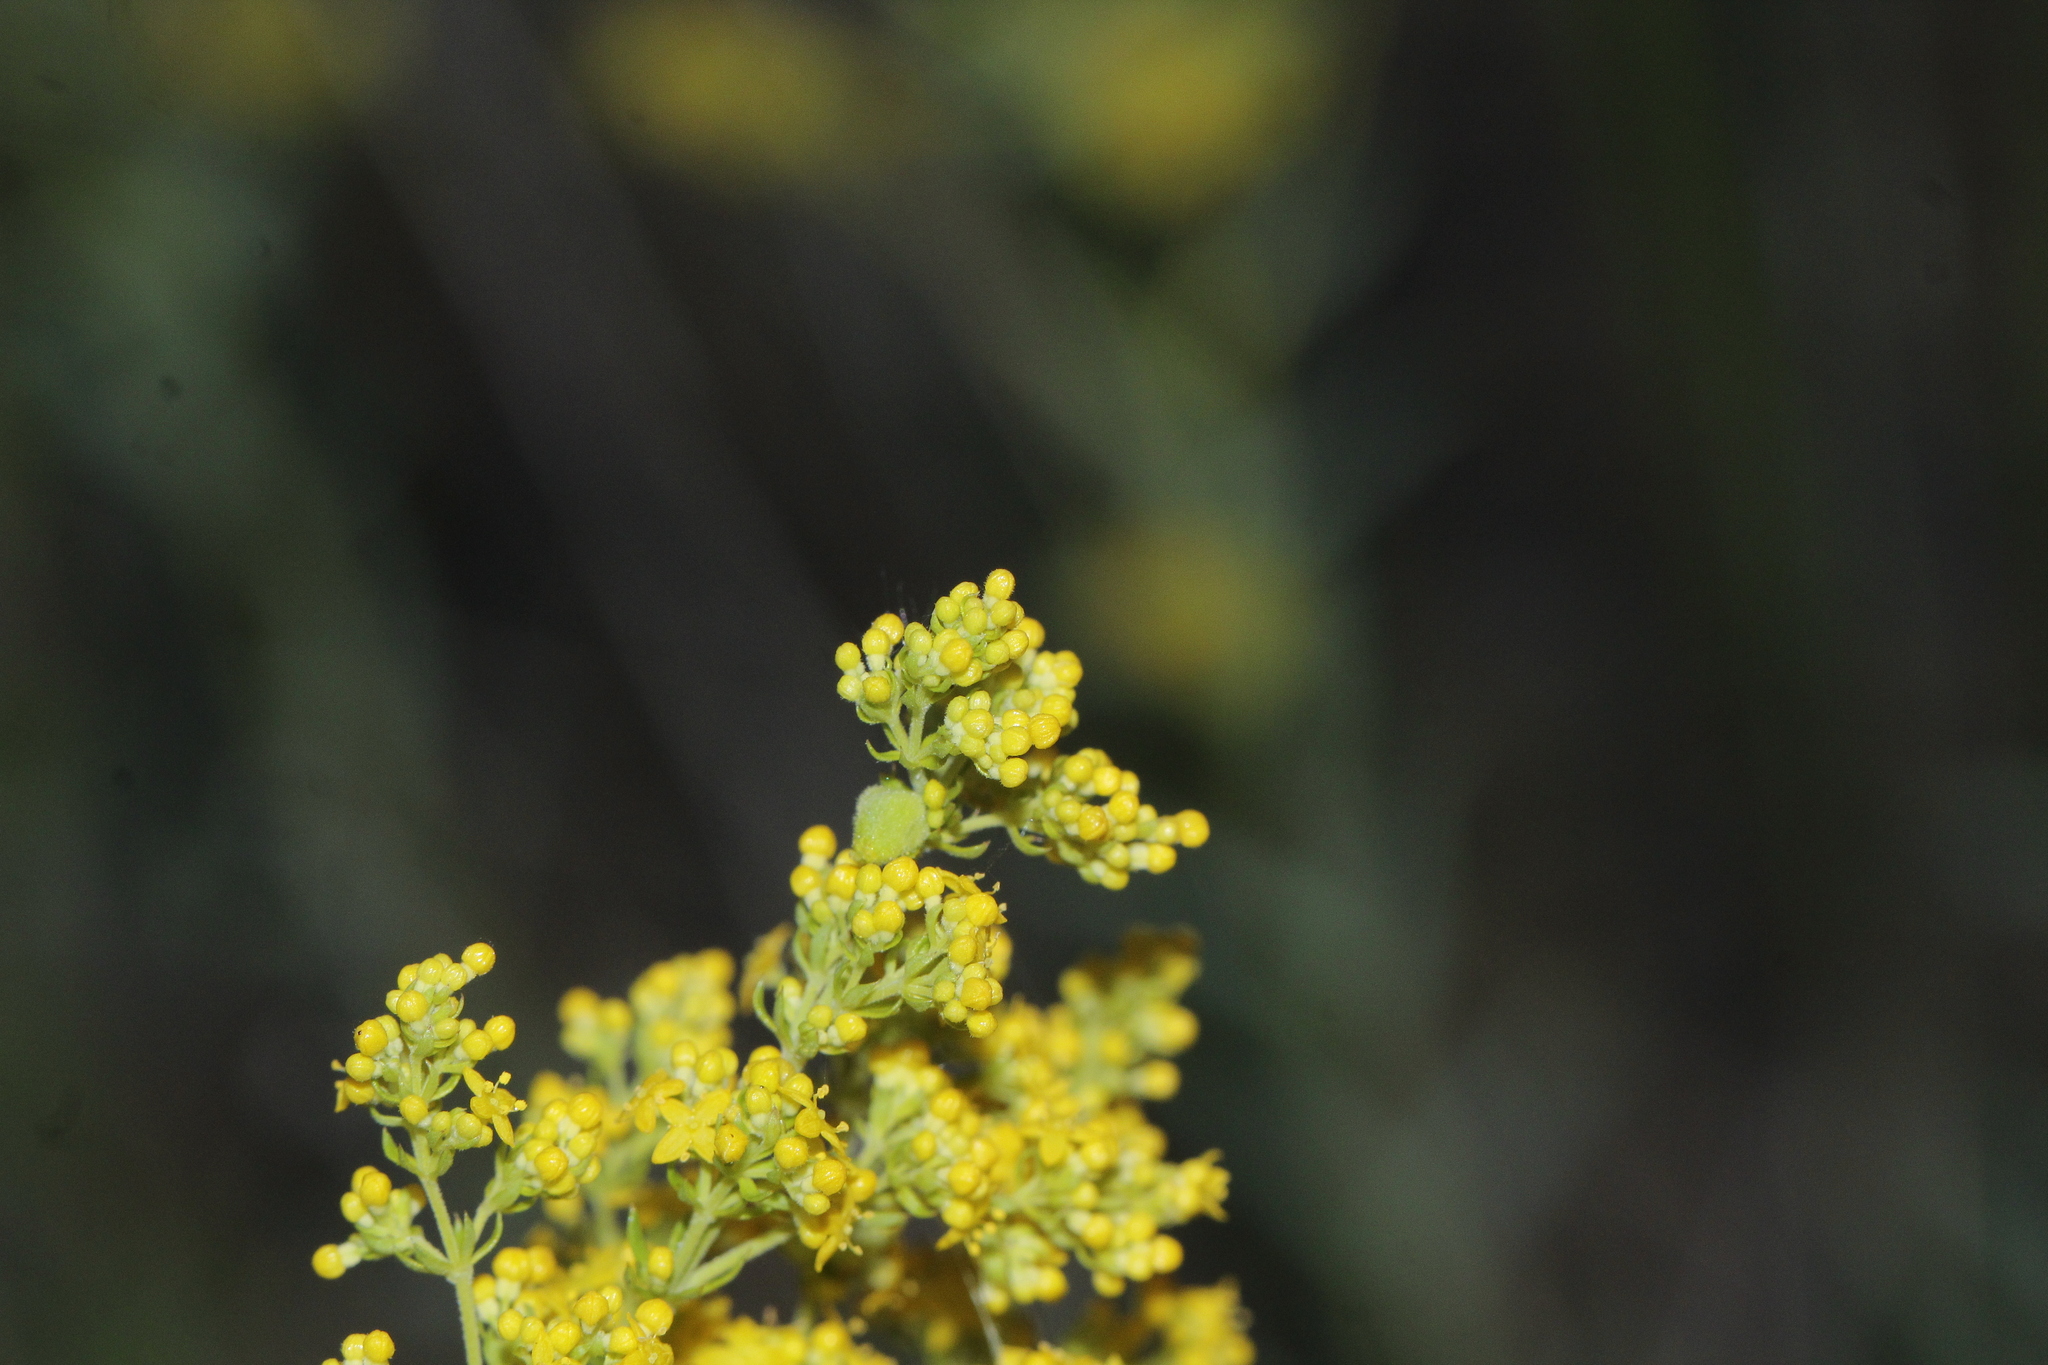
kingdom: Plantae
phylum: Tracheophyta
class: Magnoliopsida
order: Gentianales
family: Rubiaceae
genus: Galium
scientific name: Galium verum
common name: Lady's bedstraw
